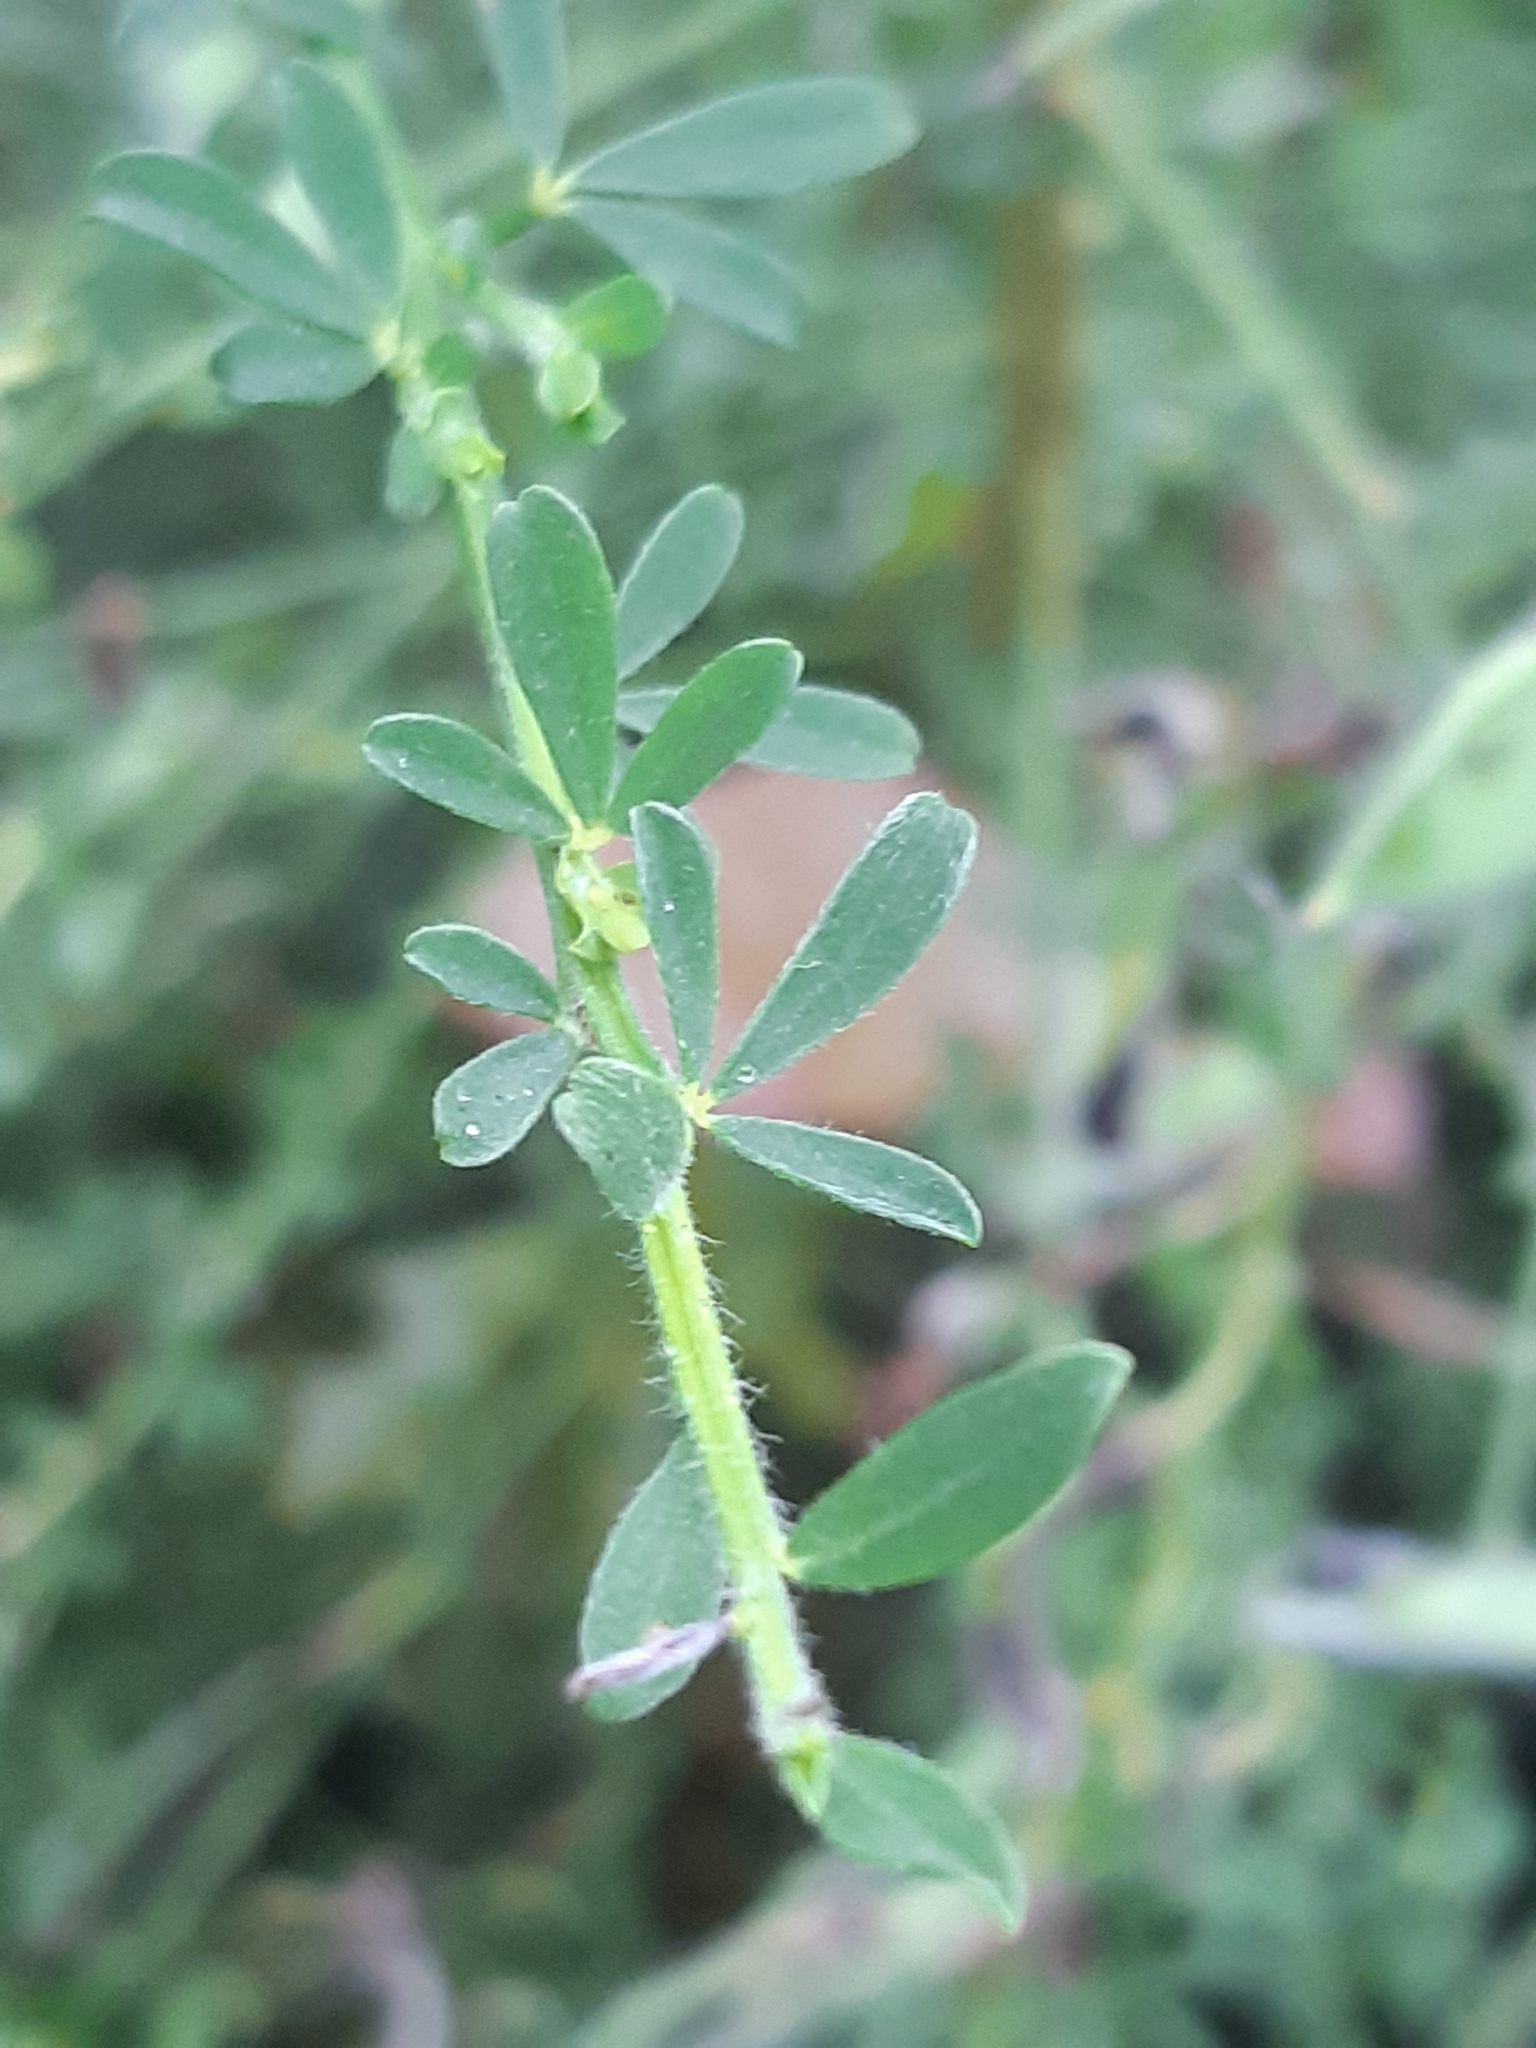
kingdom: Plantae
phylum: Tracheophyta
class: Magnoliopsida
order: Fabales
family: Fabaceae
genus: Cytisus
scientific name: Cytisus scoparius
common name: Scotch broom
